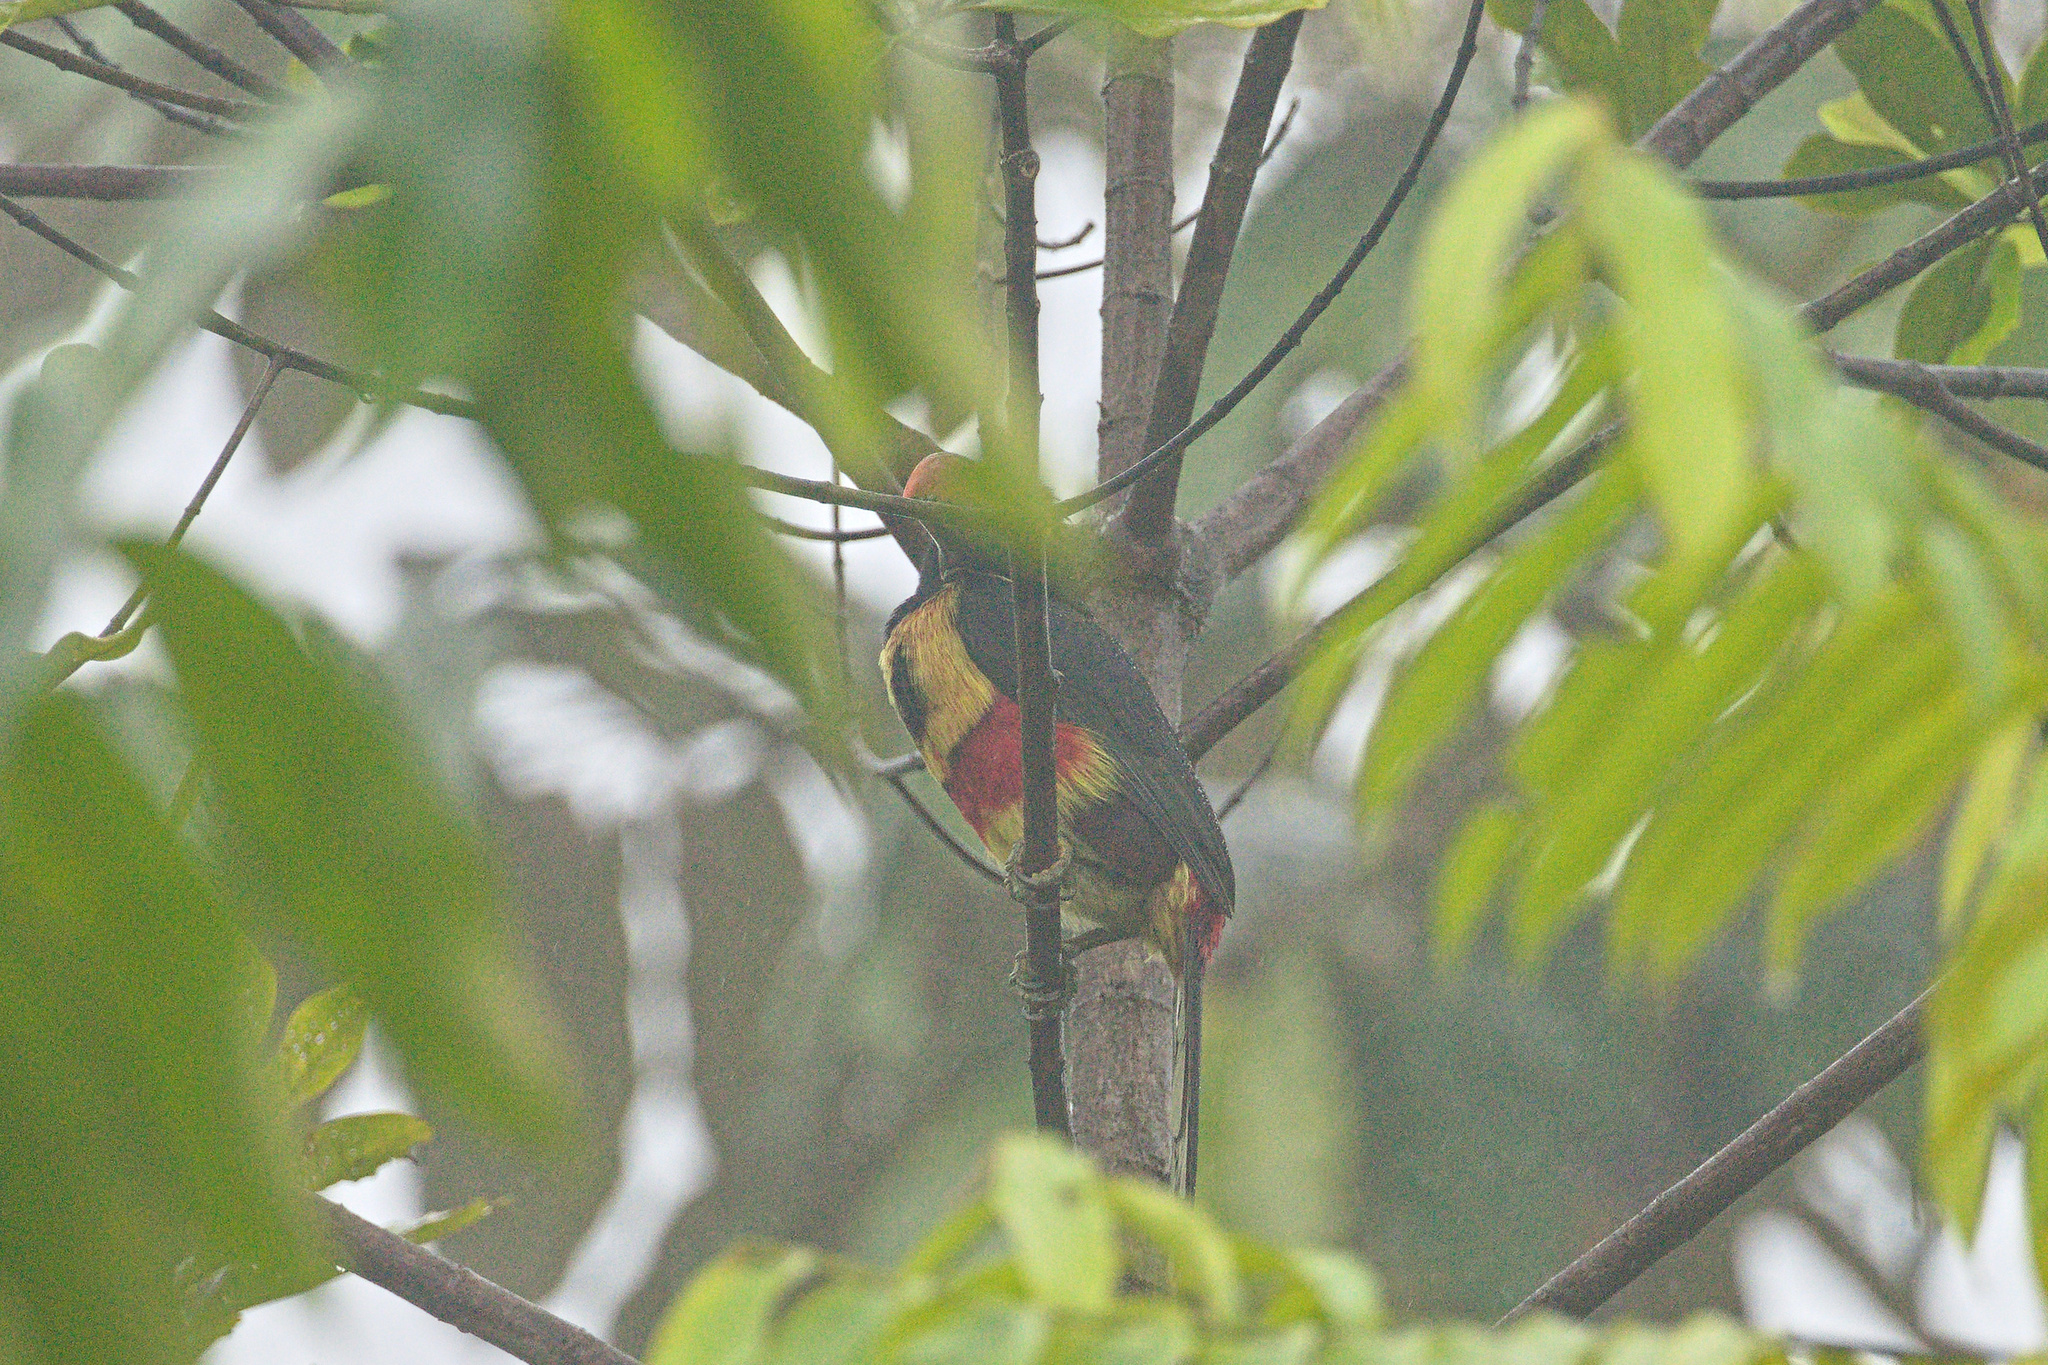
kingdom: Animalia
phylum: Chordata
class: Aves
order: Piciformes
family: Ramphastidae
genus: Pteroglossus
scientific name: Pteroglossus frantzii
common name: Fiery-billed aracari
